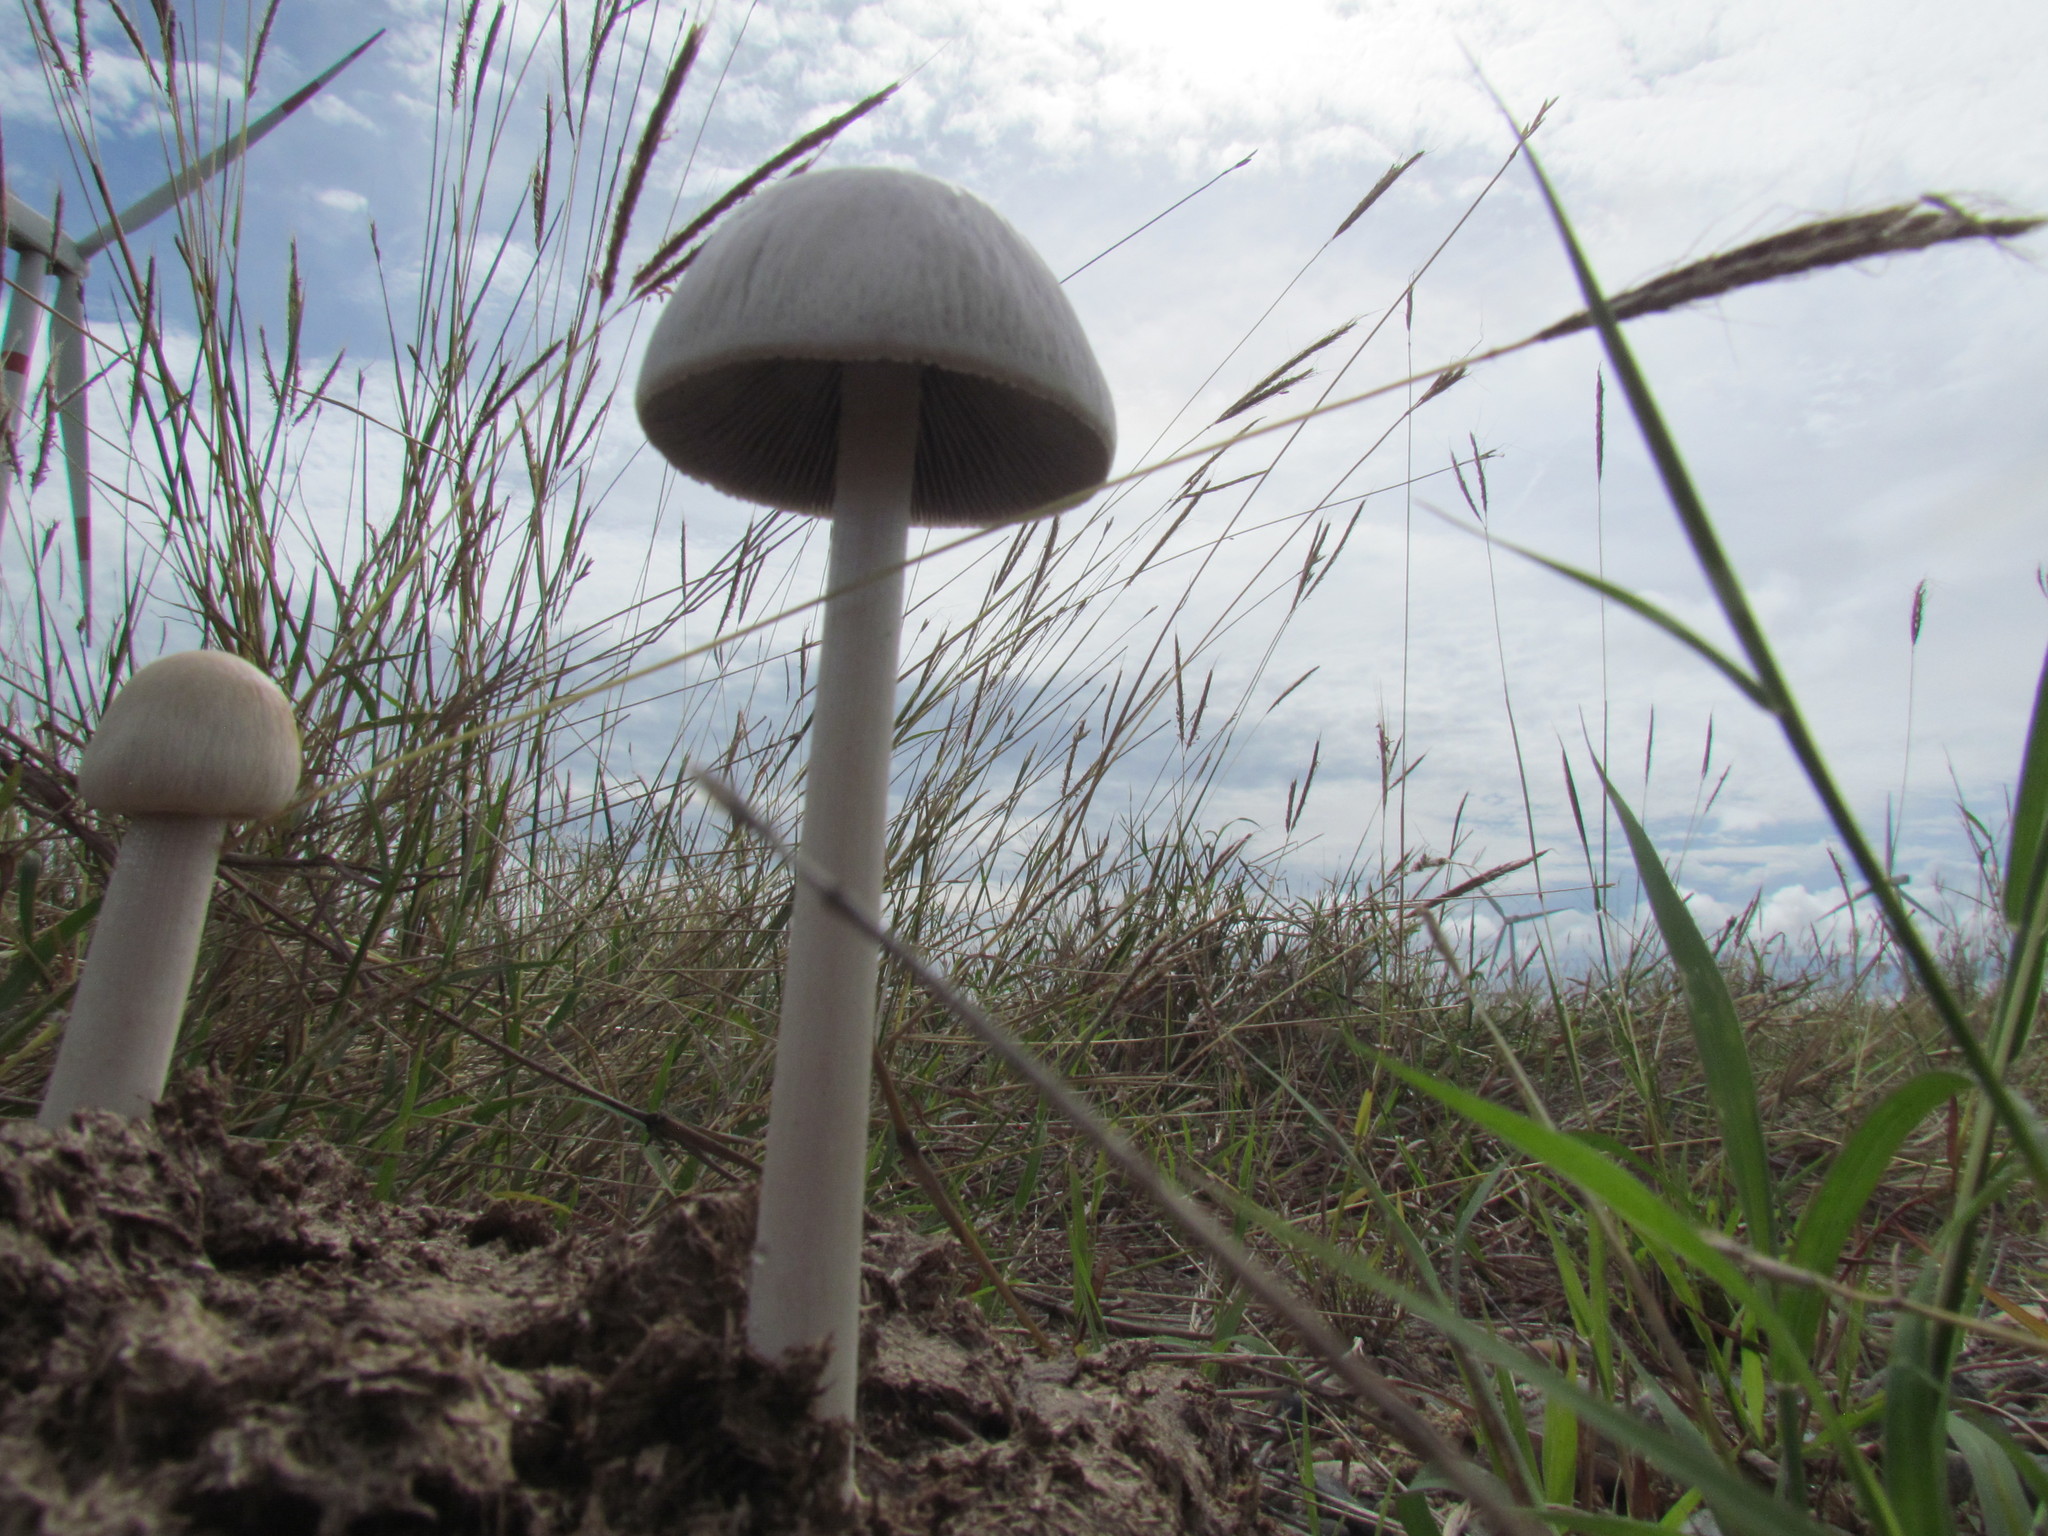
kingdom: Fungi
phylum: Basidiomycota
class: Agaricomycetes
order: Agaricales
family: Bolbitiaceae
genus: Panaeolus
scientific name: Panaeolus antillarum
